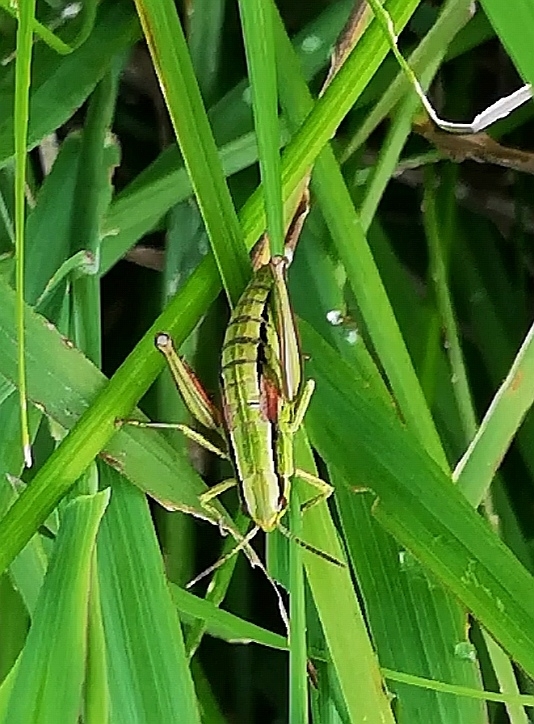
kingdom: Animalia
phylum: Arthropoda
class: Insecta
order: Orthoptera
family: Acrididae
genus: Euthystira
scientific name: Euthystira brachyptera
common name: Small gold grasshopper
